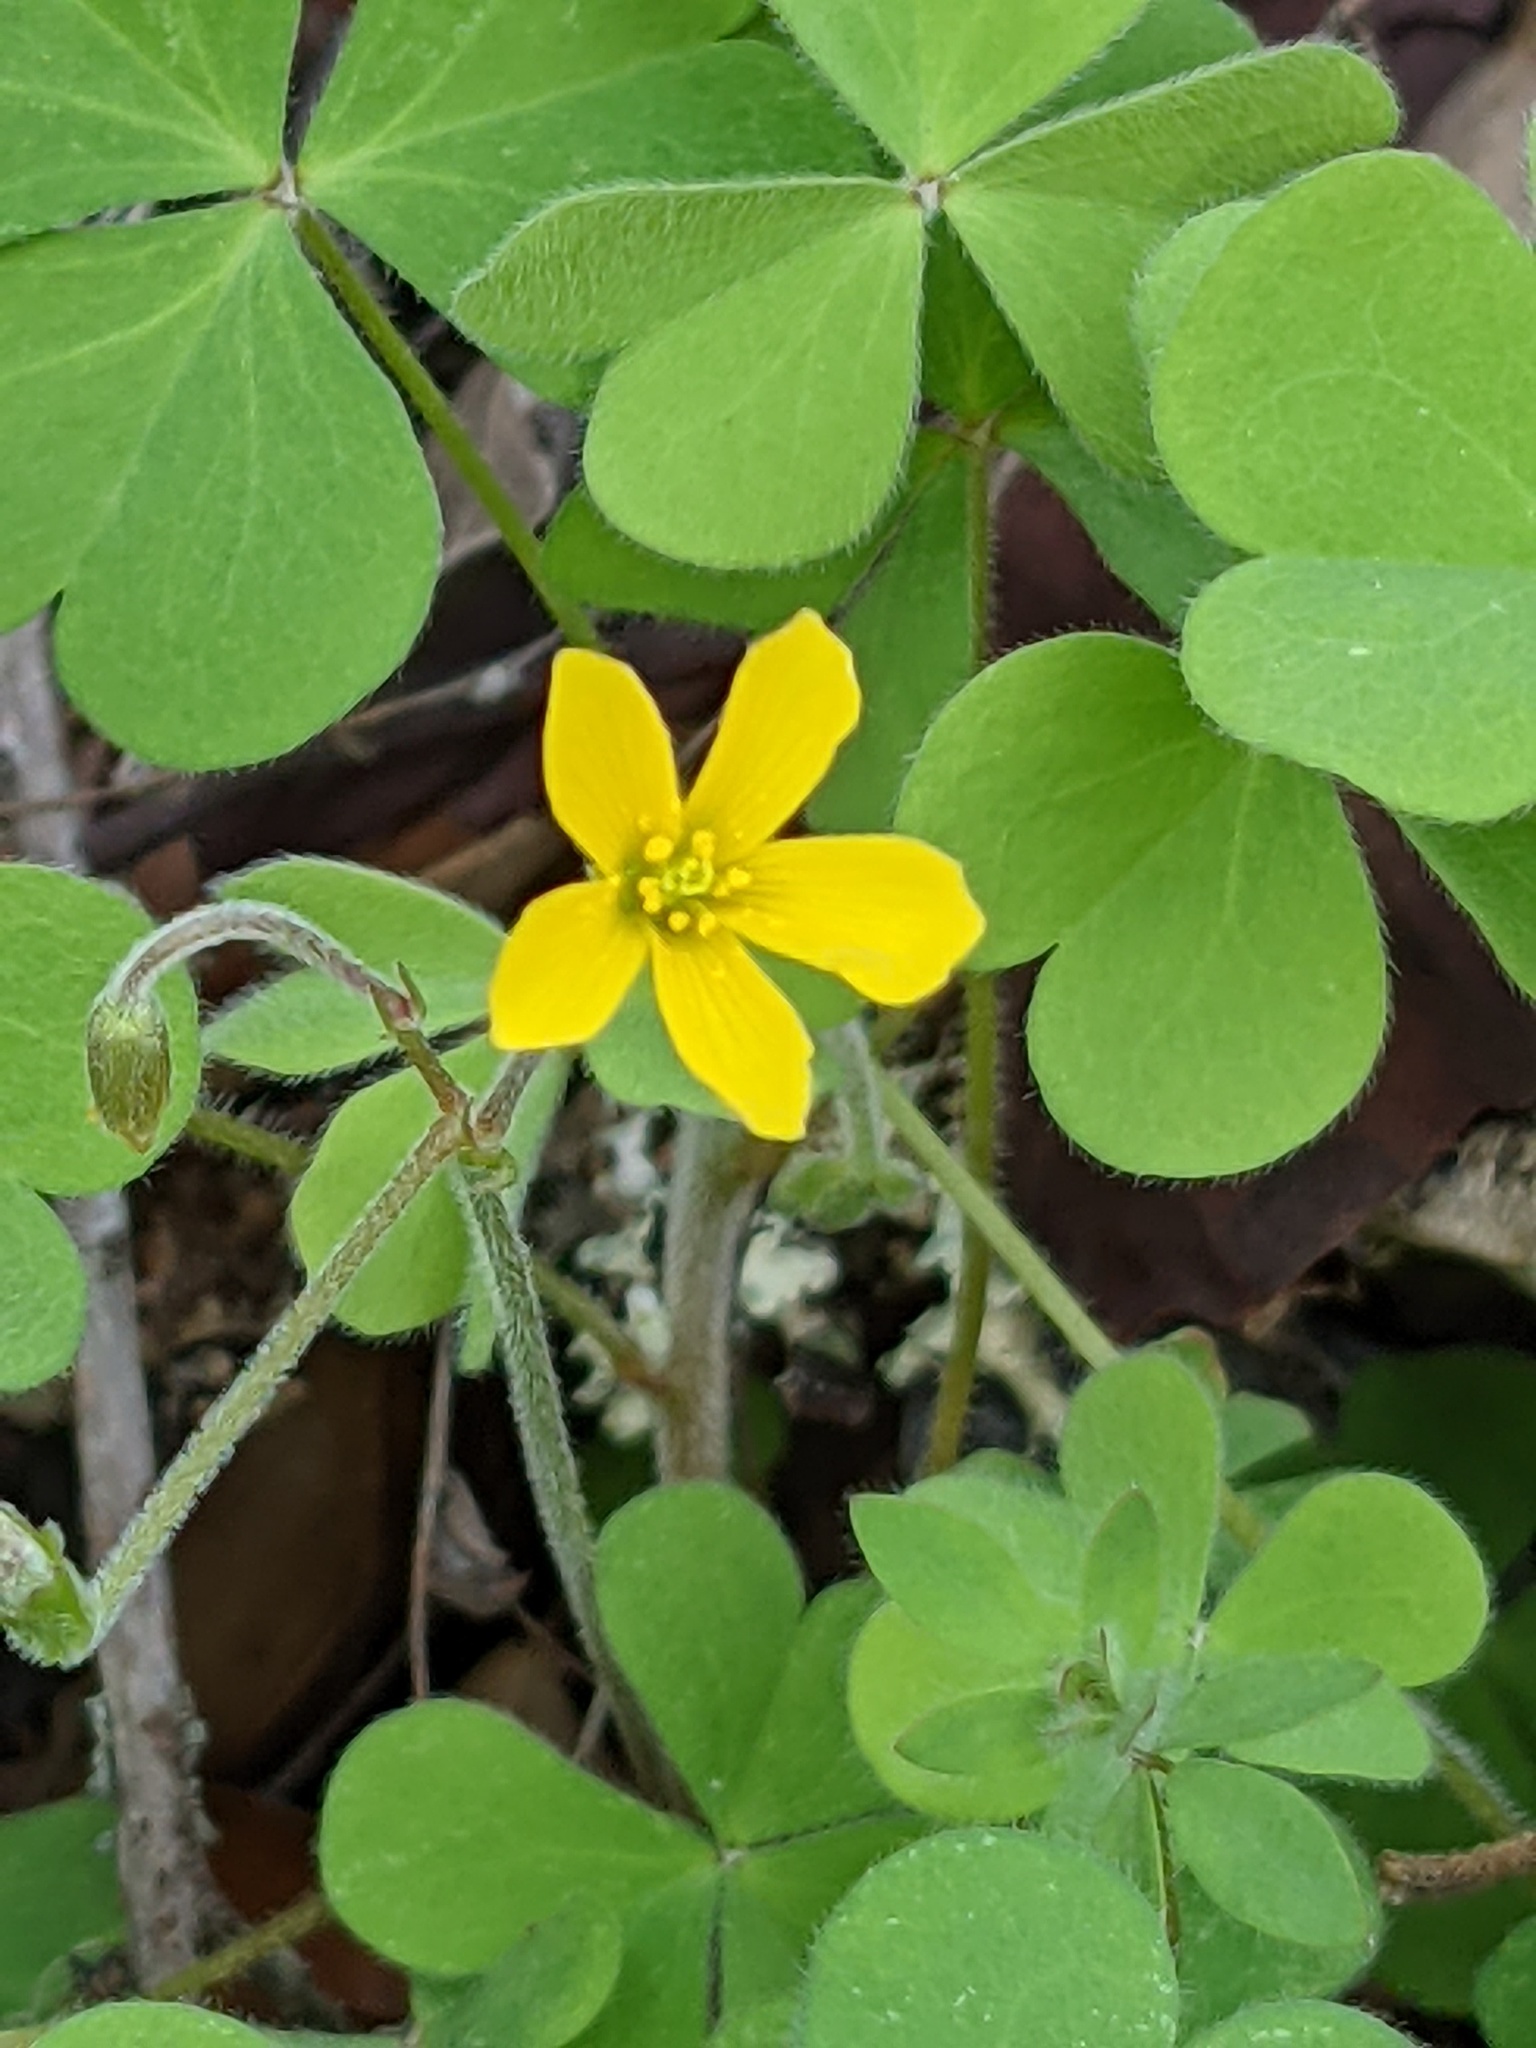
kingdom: Plantae
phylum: Tracheophyta
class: Magnoliopsida
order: Oxalidales
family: Oxalidaceae
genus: Oxalis
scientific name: Oxalis pilosa
